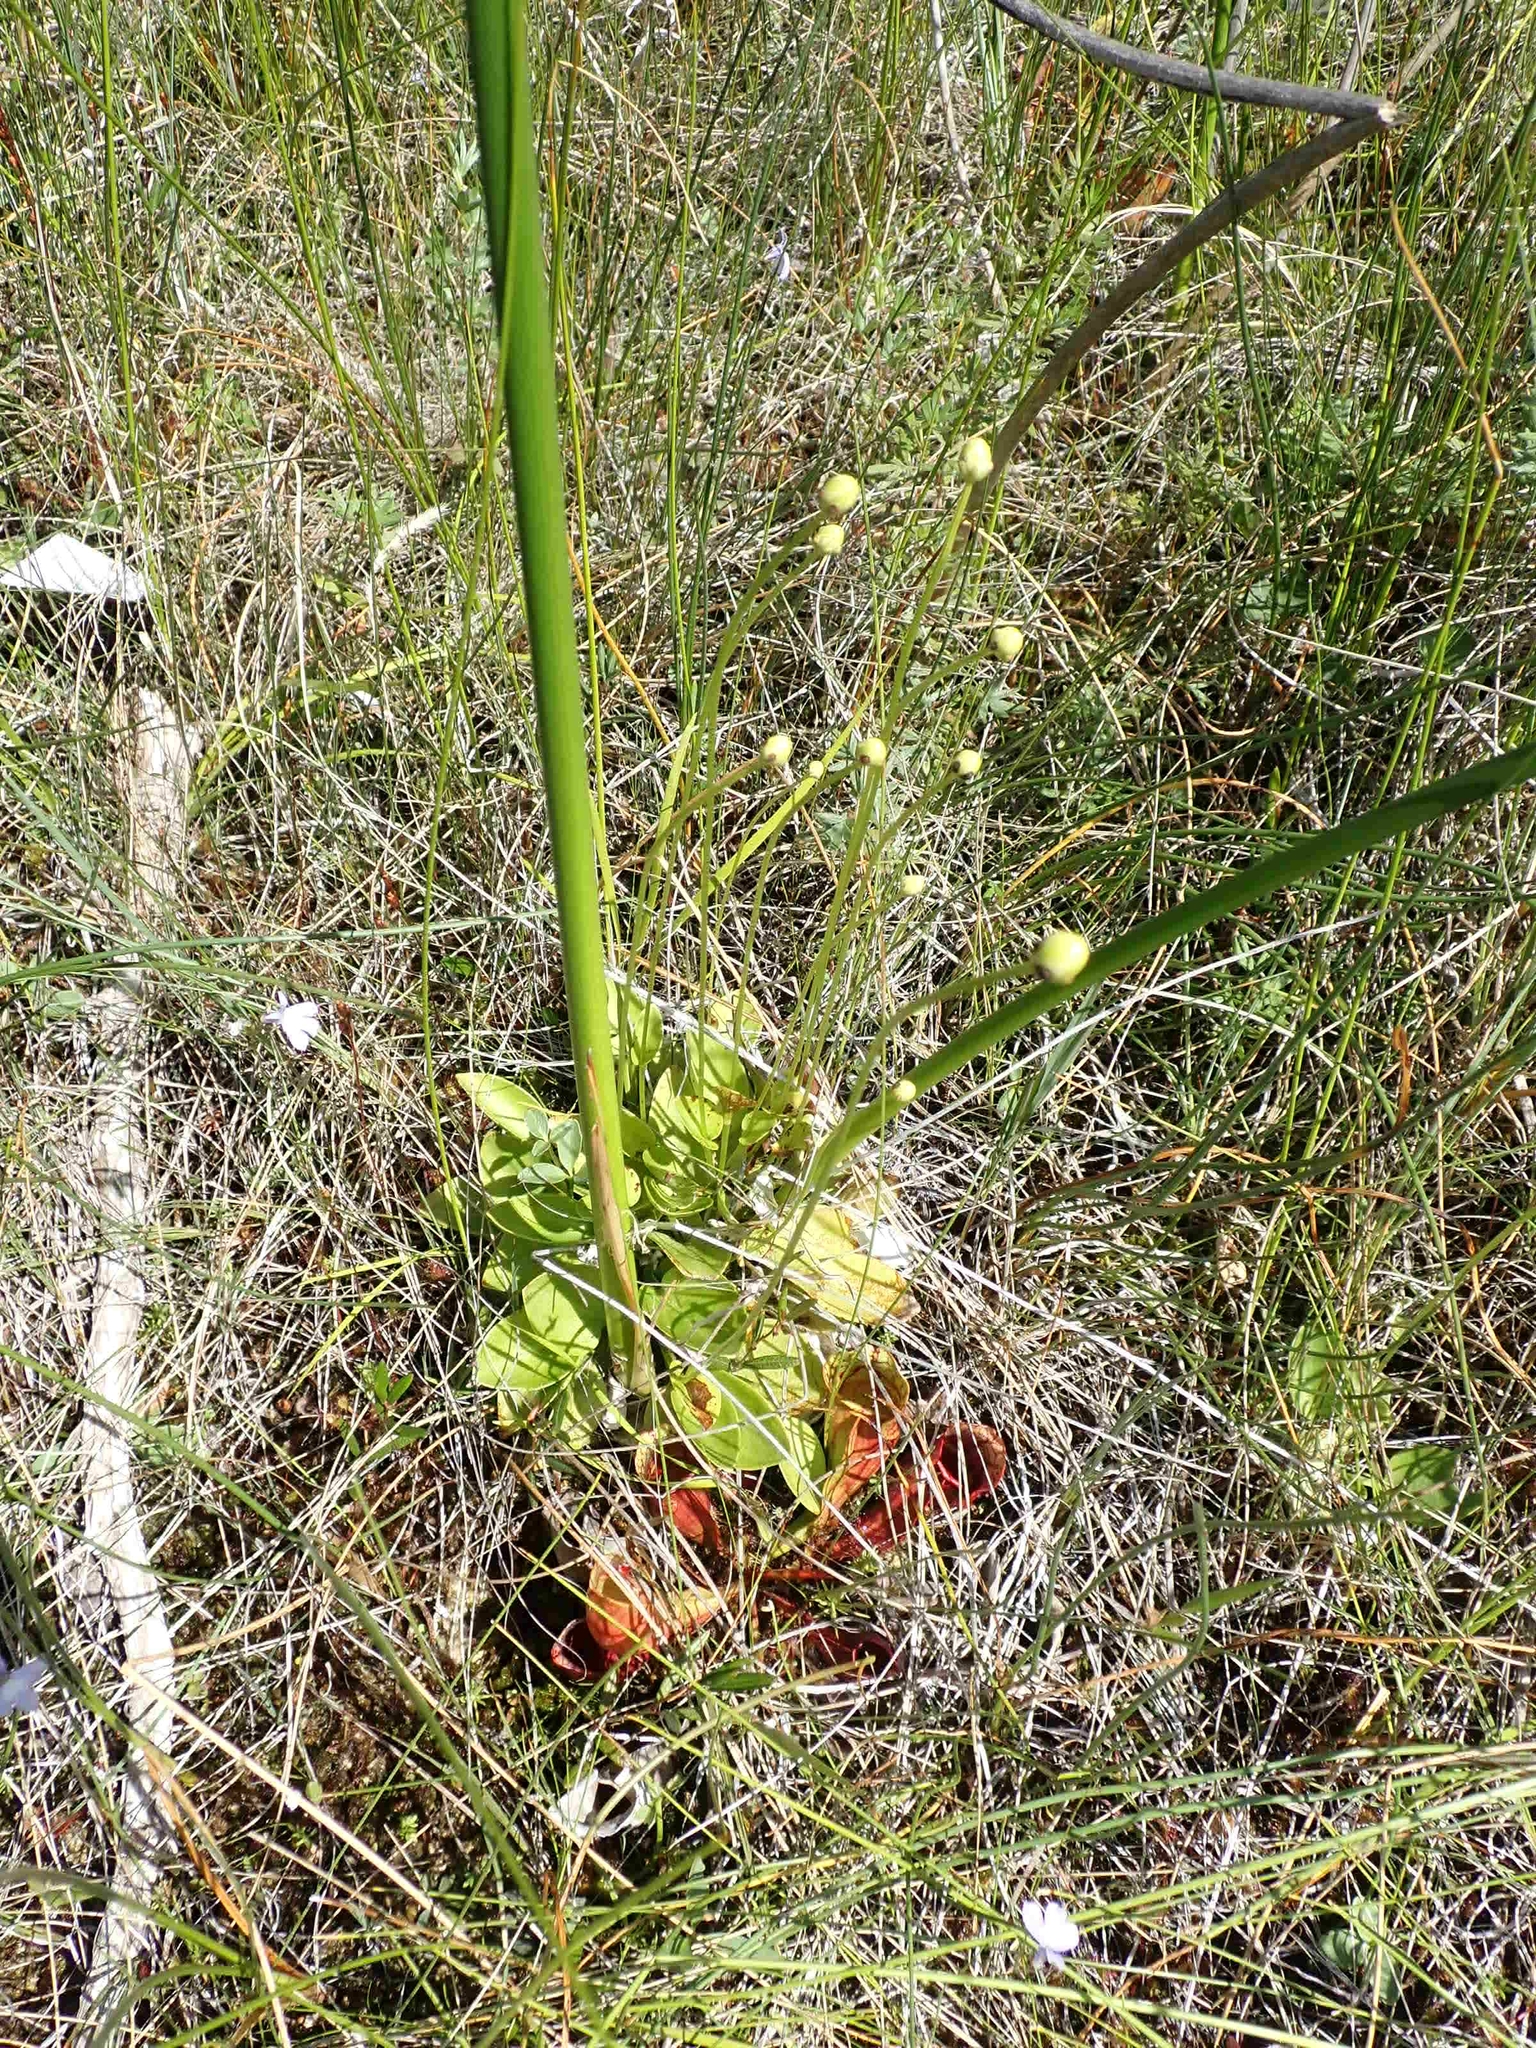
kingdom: Plantae
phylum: Tracheophyta
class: Magnoliopsida
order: Celastrales
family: Parnassiaceae
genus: Parnassia
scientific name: Parnassia glauca
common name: American grass-of-parnassus
